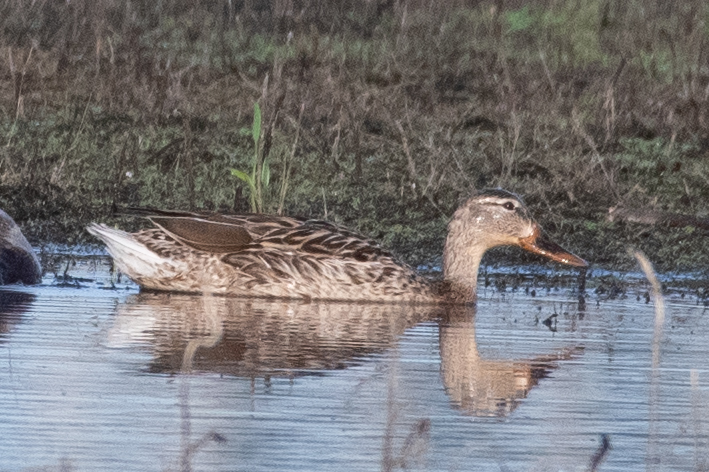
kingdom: Animalia
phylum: Chordata
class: Aves
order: Anseriformes
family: Anatidae
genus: Anas
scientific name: Anas platyrhynchos
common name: Mallard
